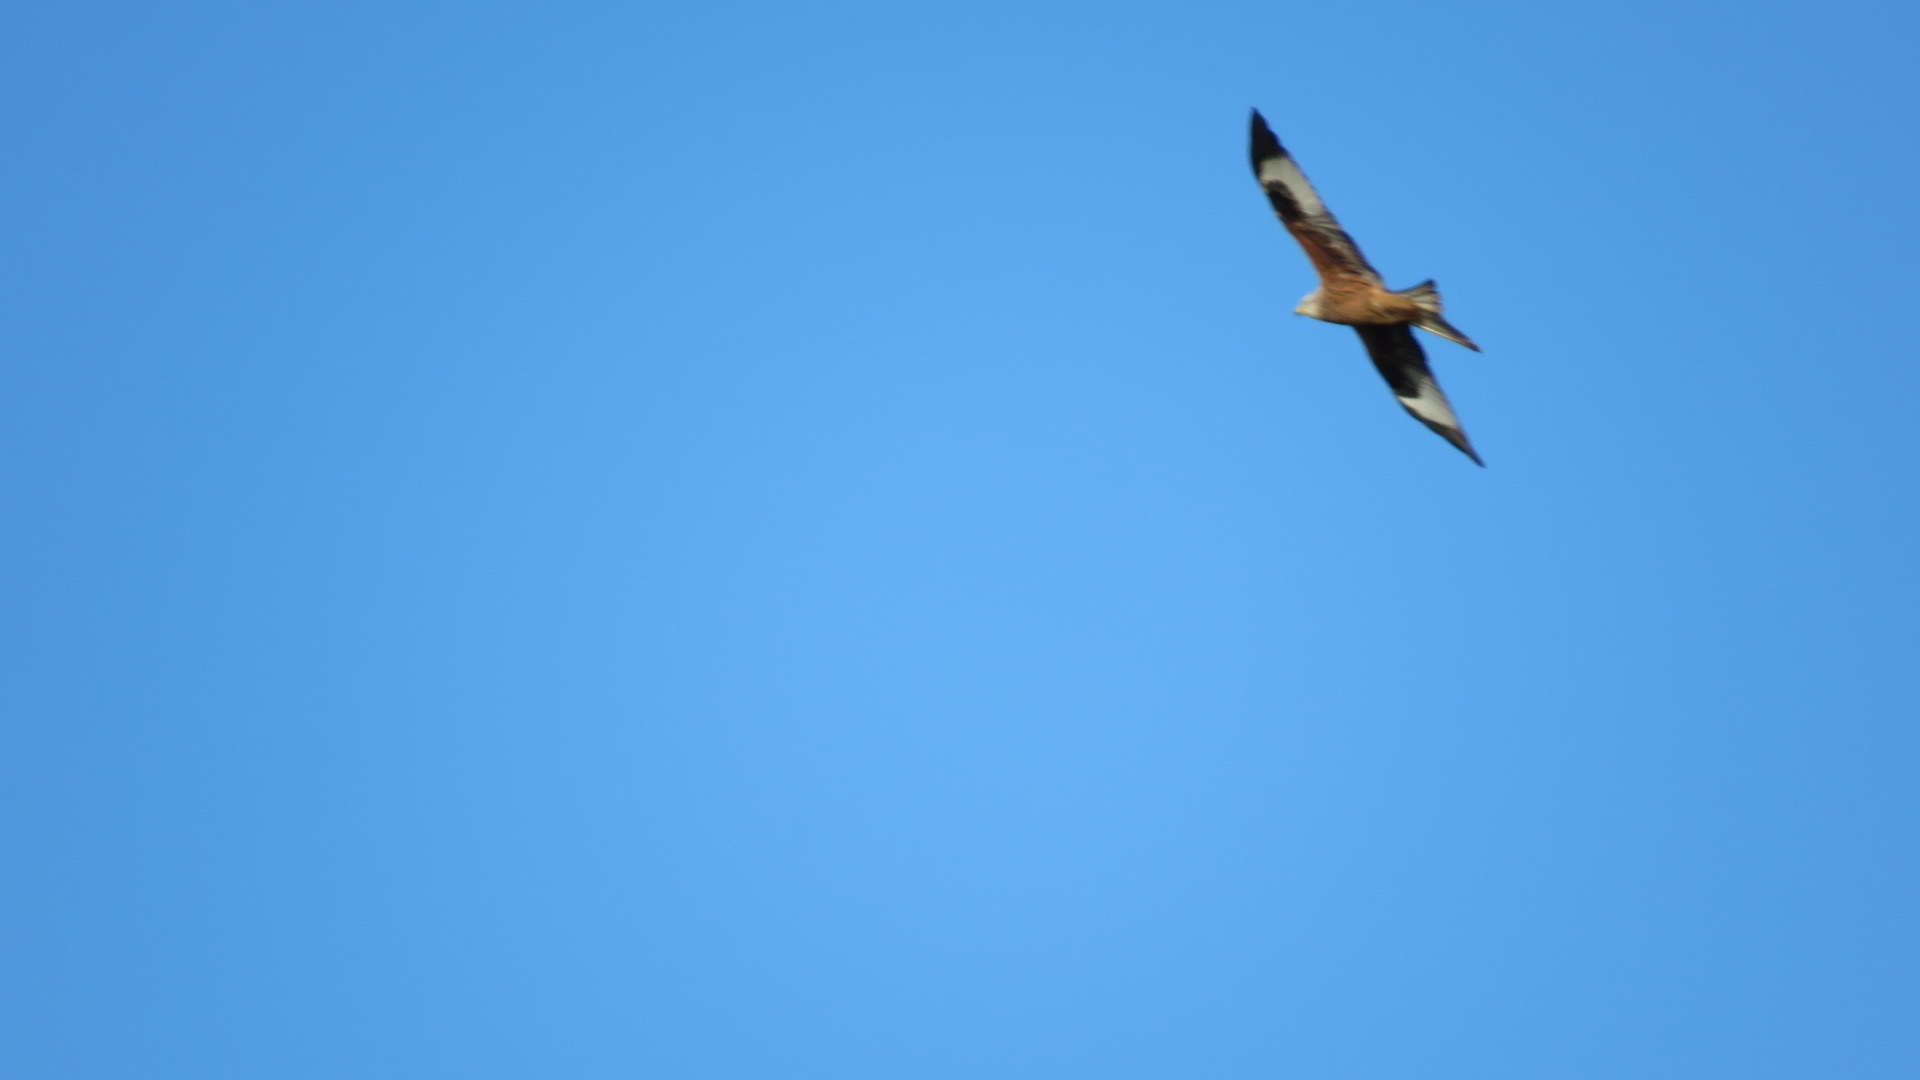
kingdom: Animalia
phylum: Chordata
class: Aves
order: Accipitriformes
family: Accipitridae
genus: Milvus
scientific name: Milvus milvus
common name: Red kite
